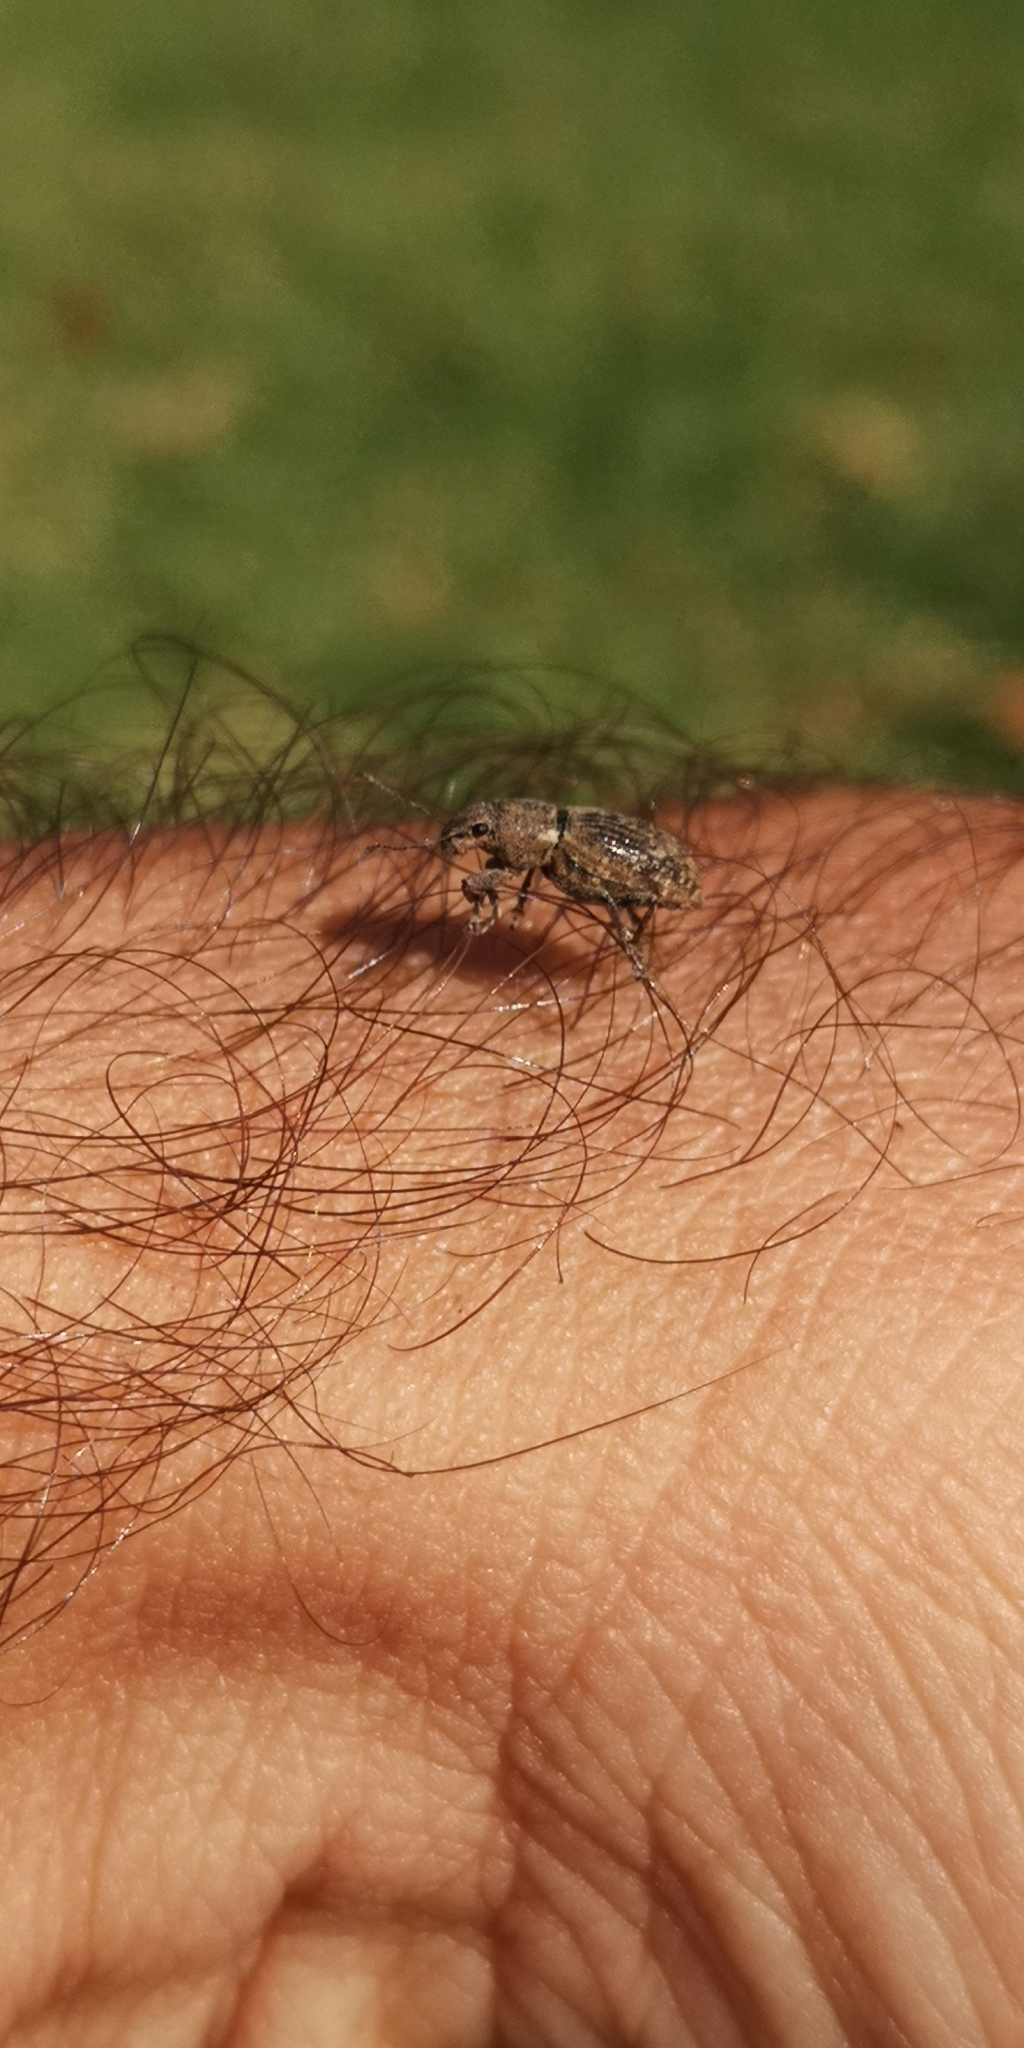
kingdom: Animalia
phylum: Arthropoda
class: Insecta
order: Coleoptera
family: Curculionidae
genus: Naupactus
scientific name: Naupactus cervinus
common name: Fuller rose beetle
